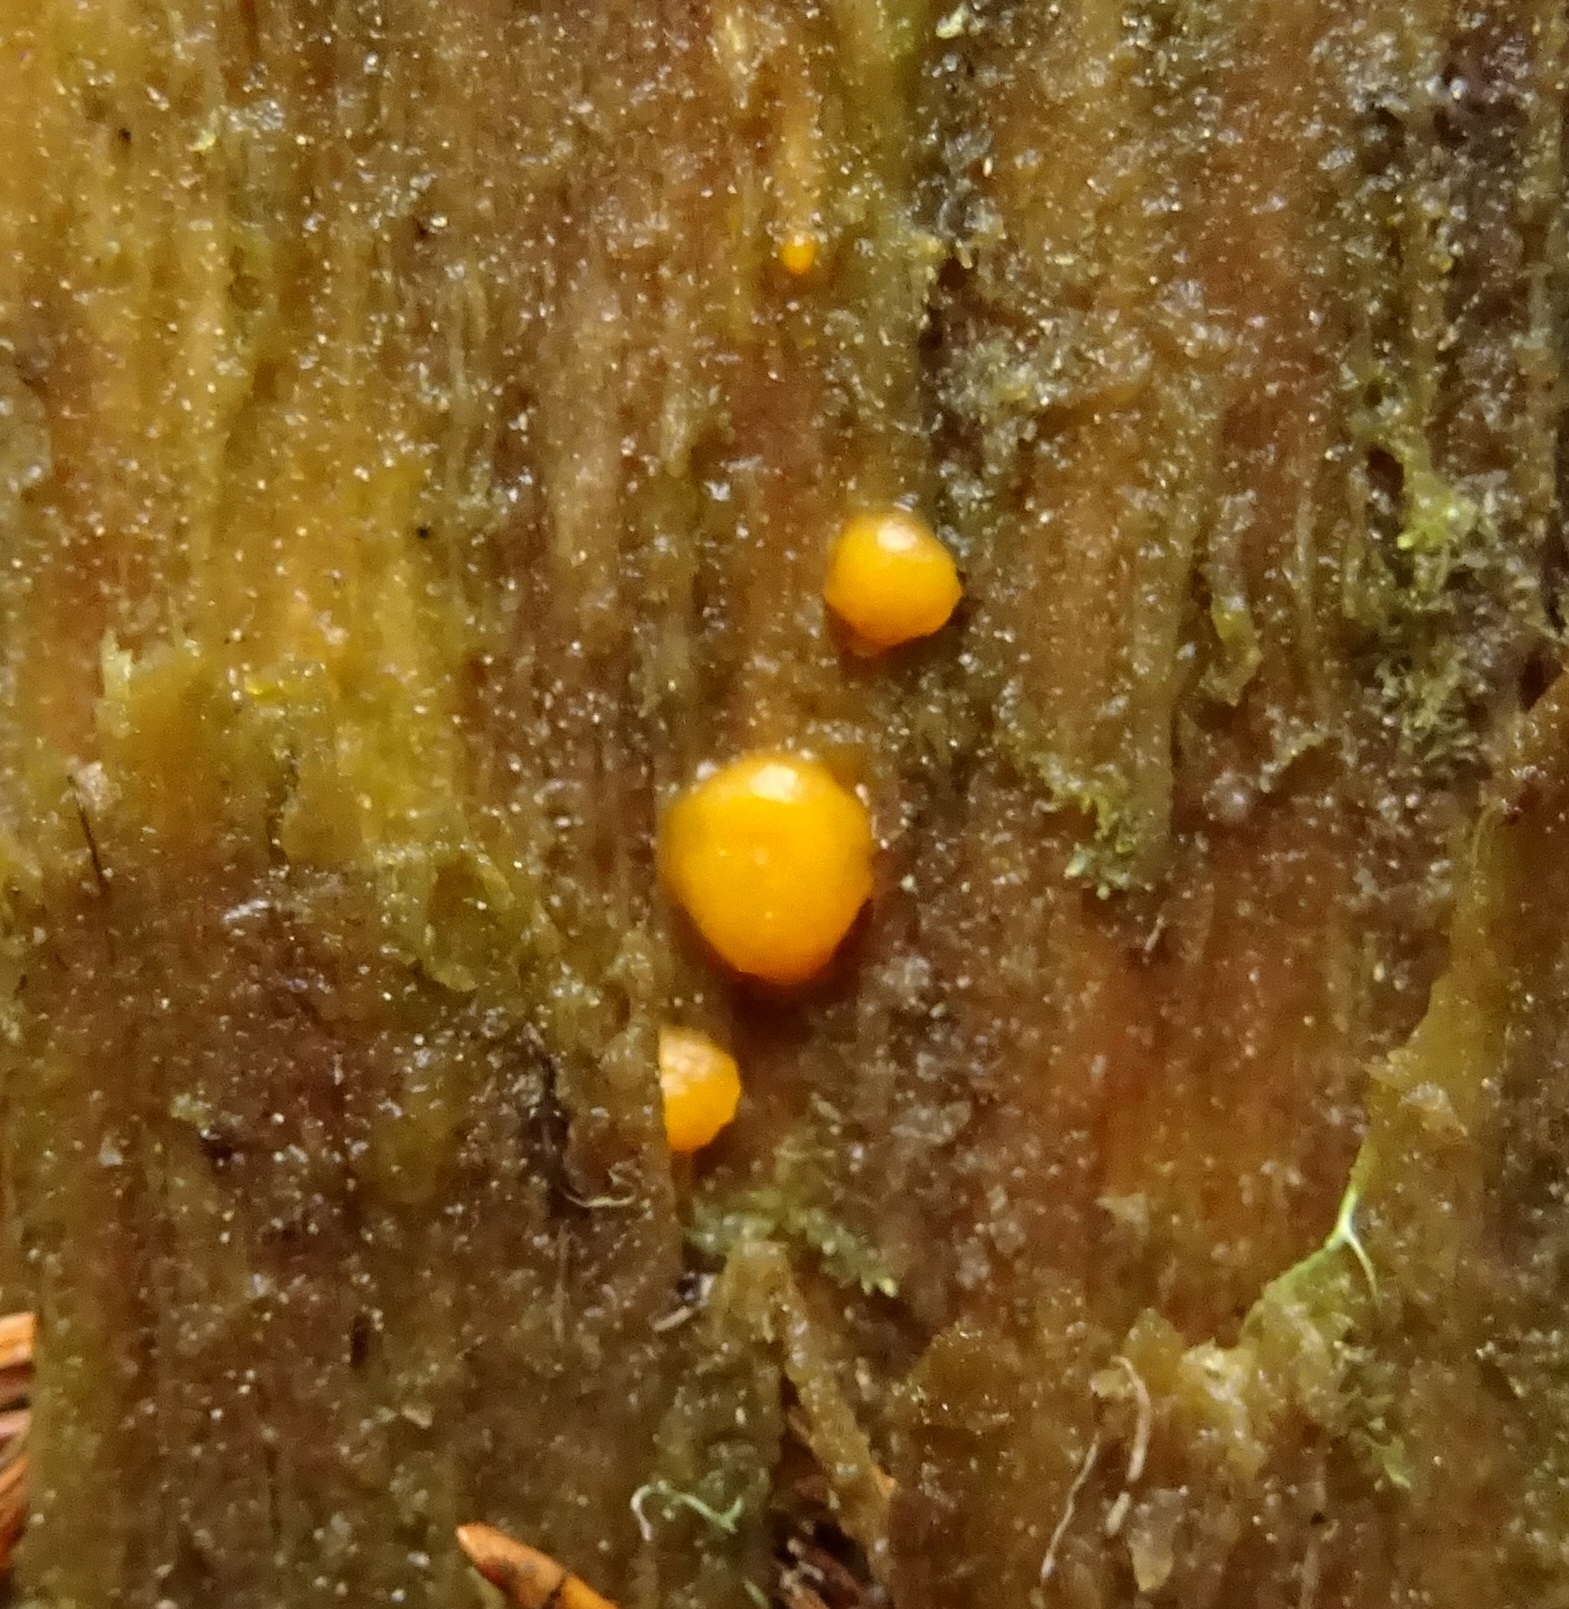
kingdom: Fungi
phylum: Basidiomycota
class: Dacrymycetes
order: Dacrymycetales
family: Dacrymycetaceae
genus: Dacrymyces
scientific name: Dacrymyces stillatus
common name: Common jelly spot
